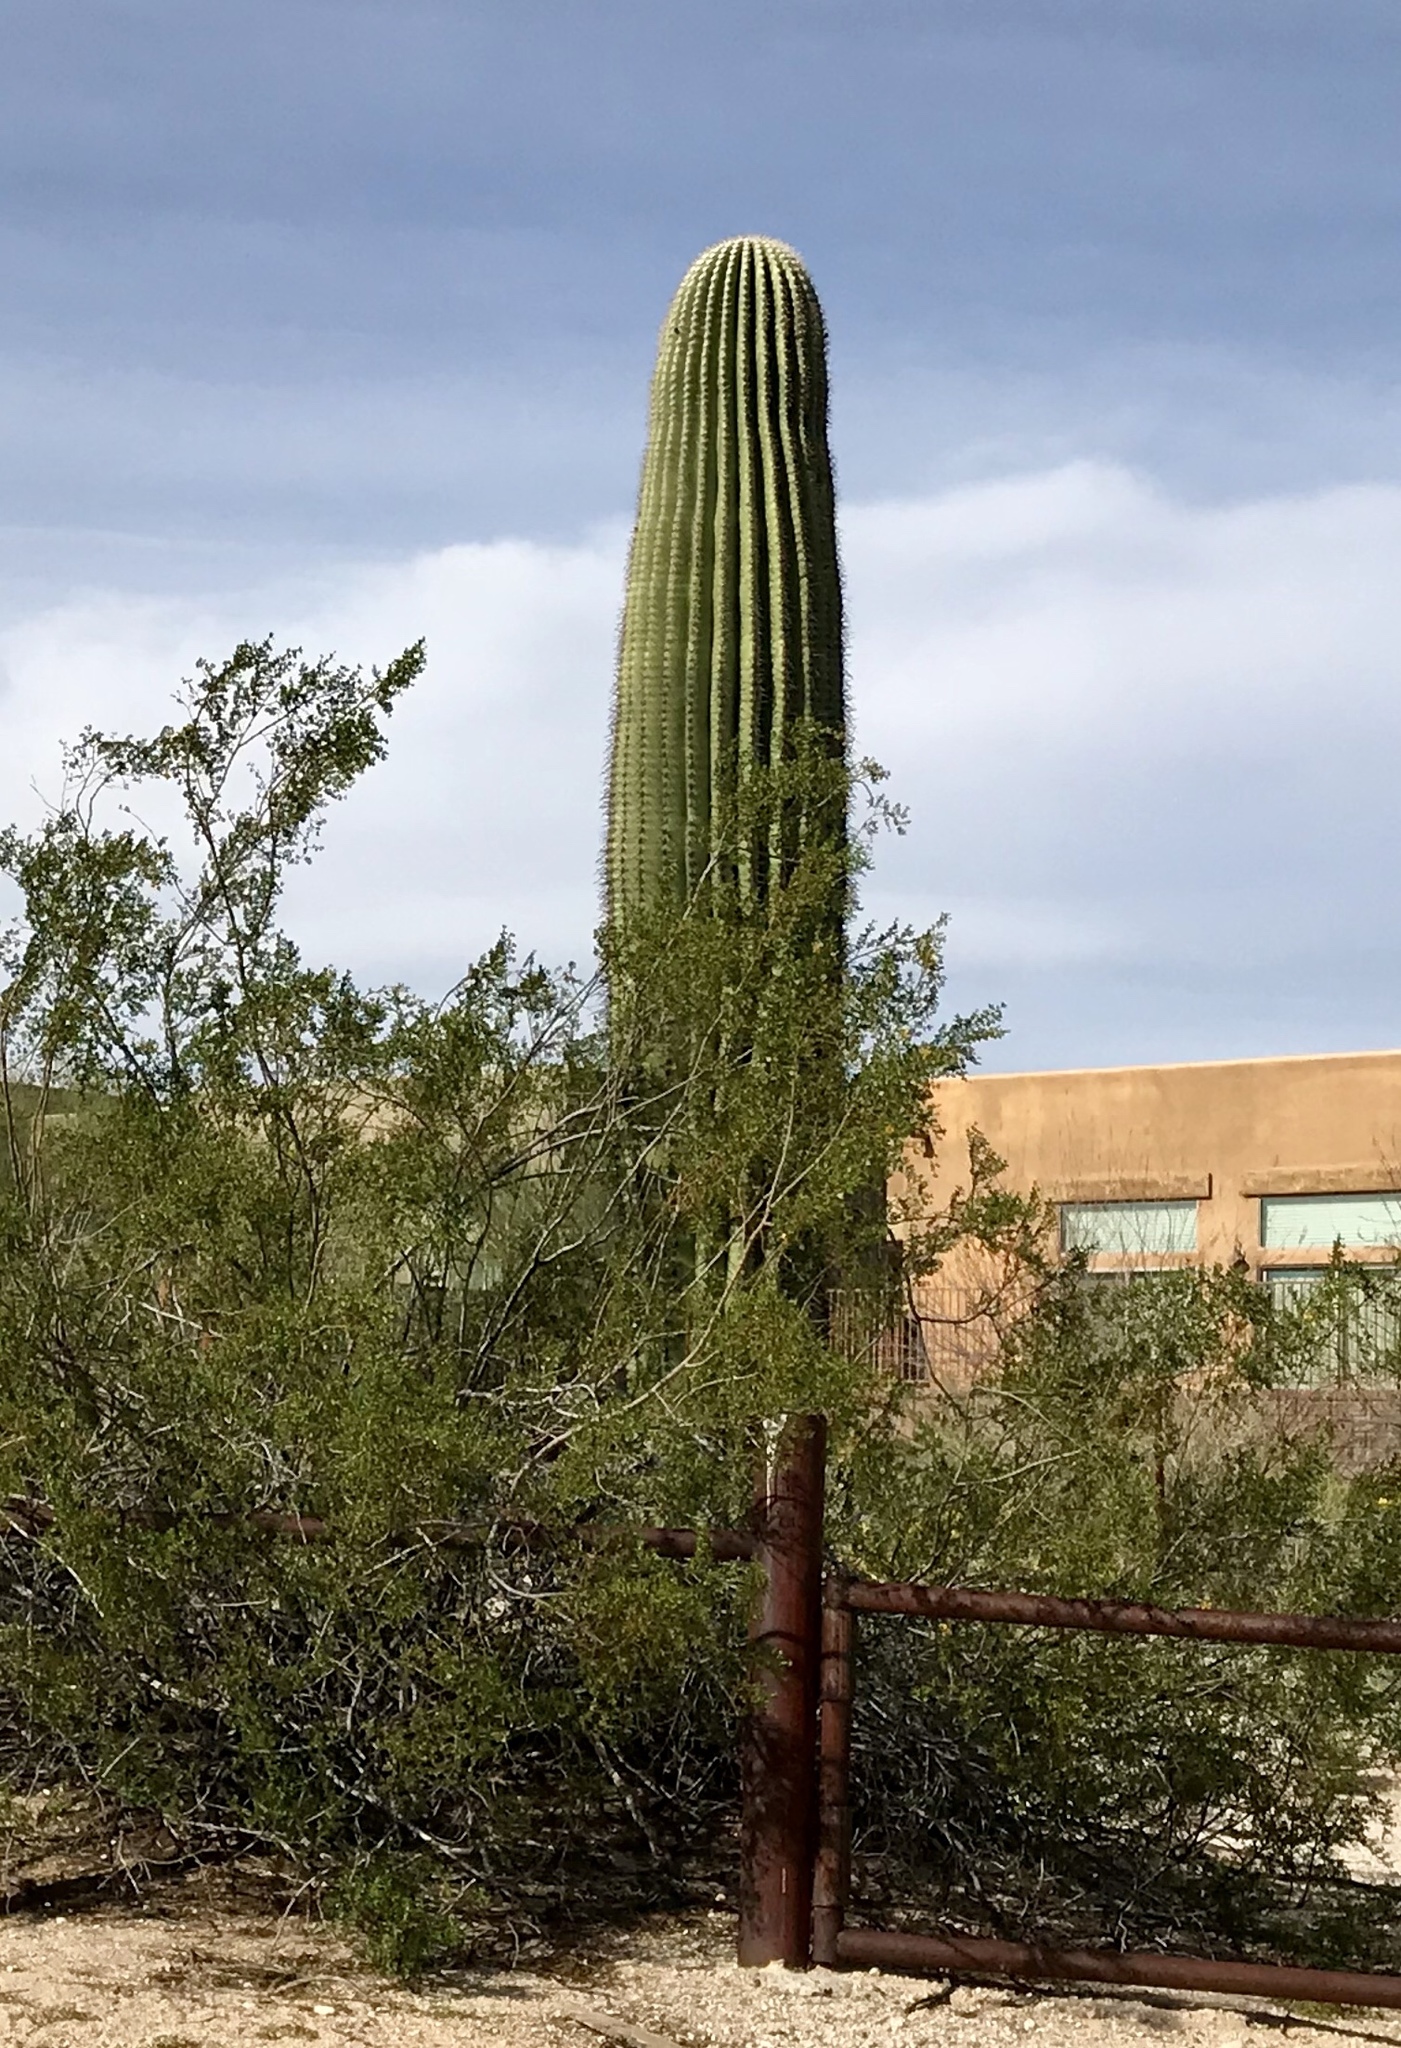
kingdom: Plantae
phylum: Tracheophyta
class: Magnoliopsida
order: Caryophyllales
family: Cactaceae
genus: Carnegiea
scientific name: Carnegiea gigantea
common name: Saguaro
